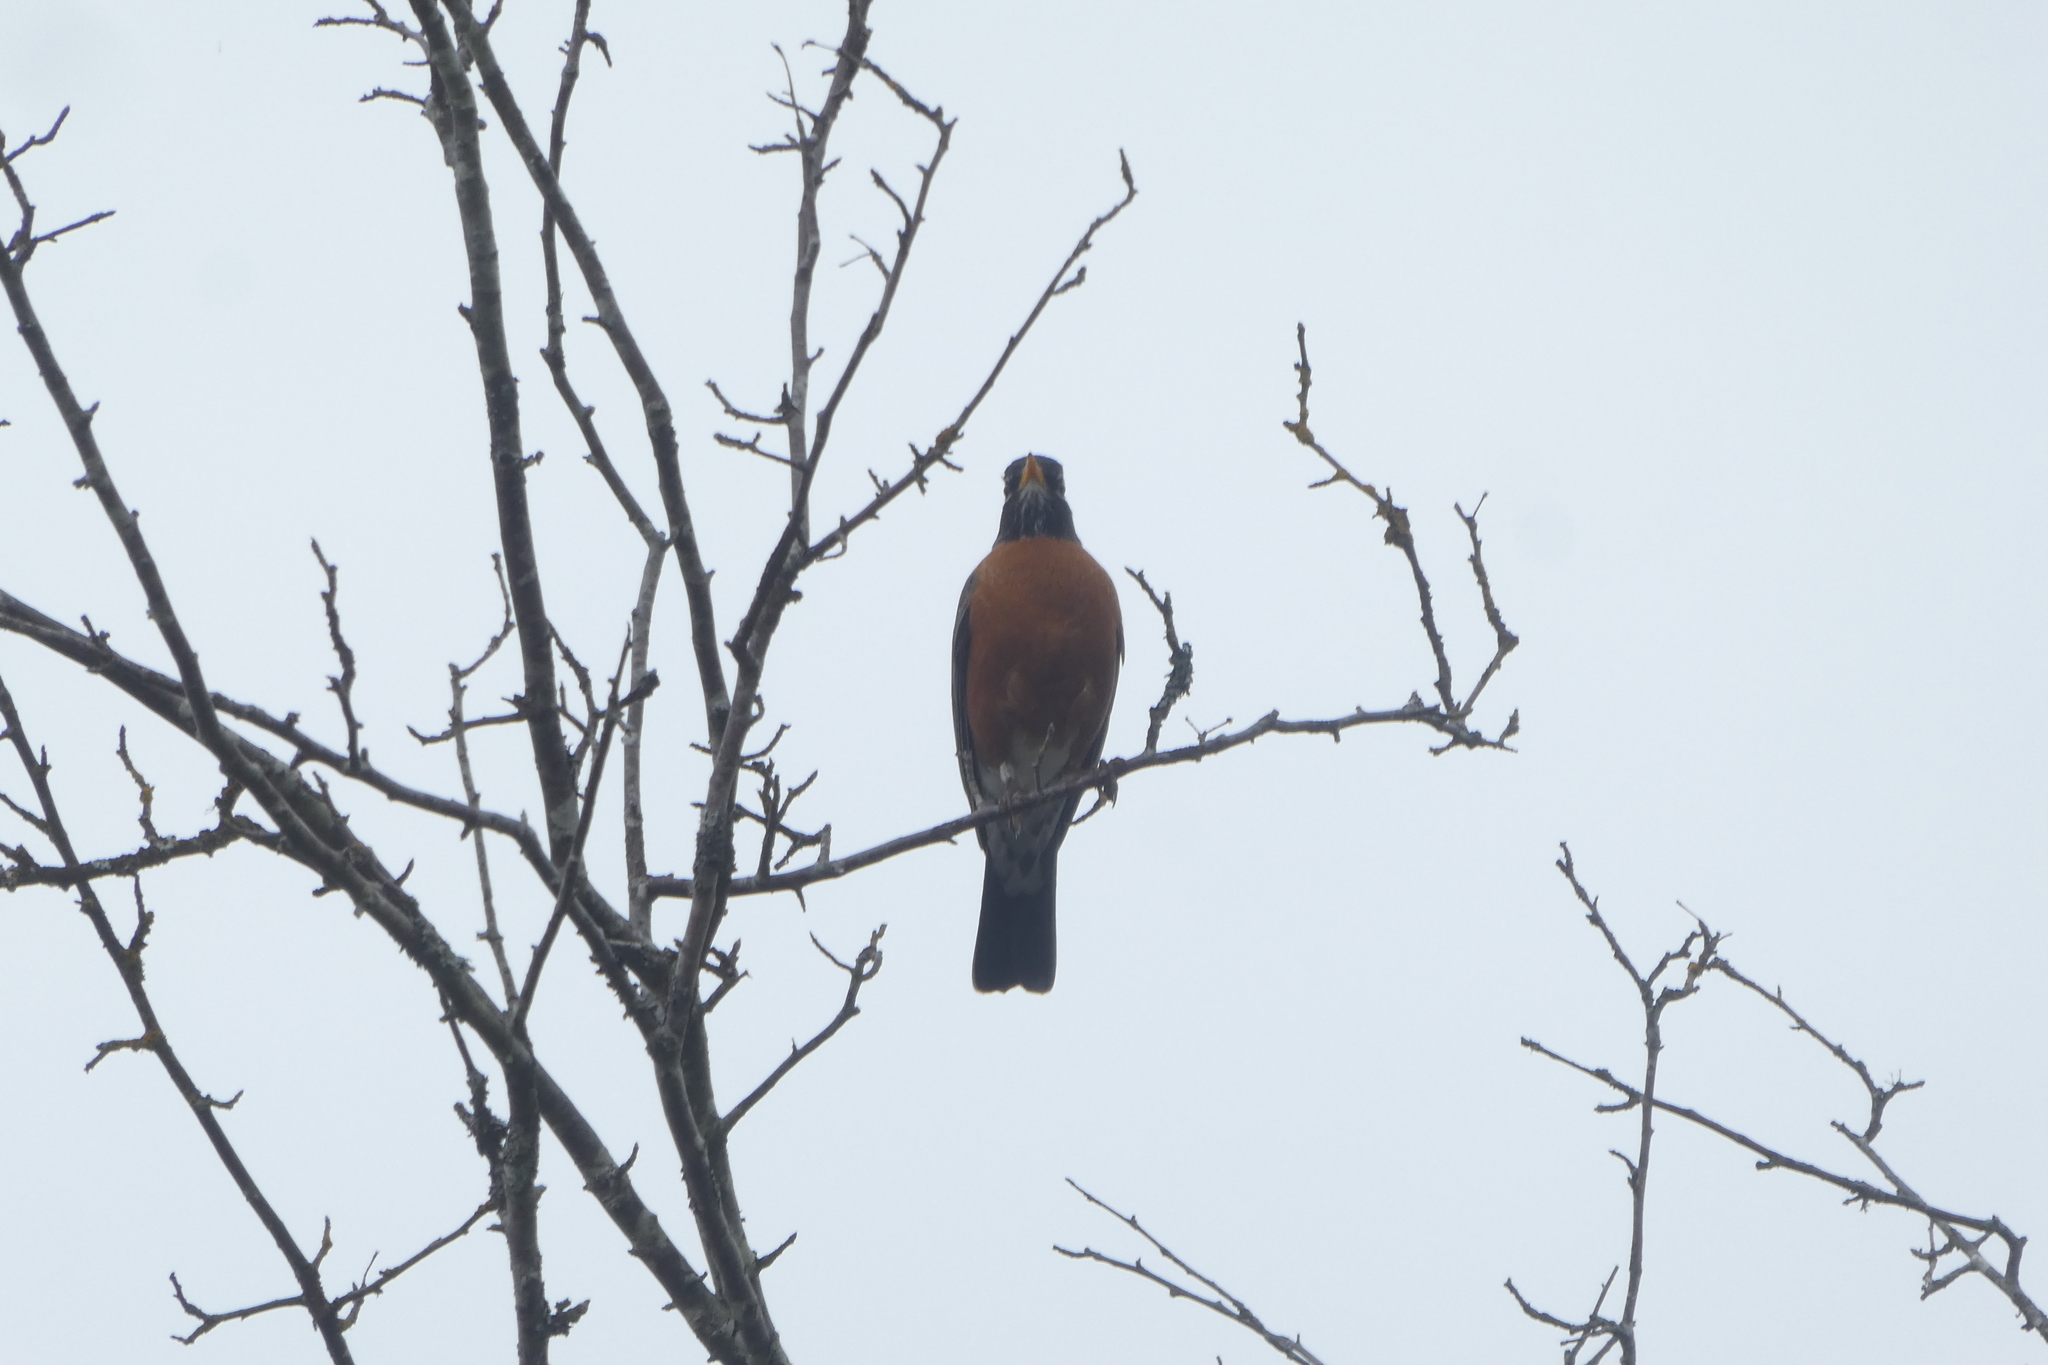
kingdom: Animalia
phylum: Chordata
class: Aves
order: Passeriformes
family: Turdidae
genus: Turdus
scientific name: Turdus migratorius
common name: American robin
